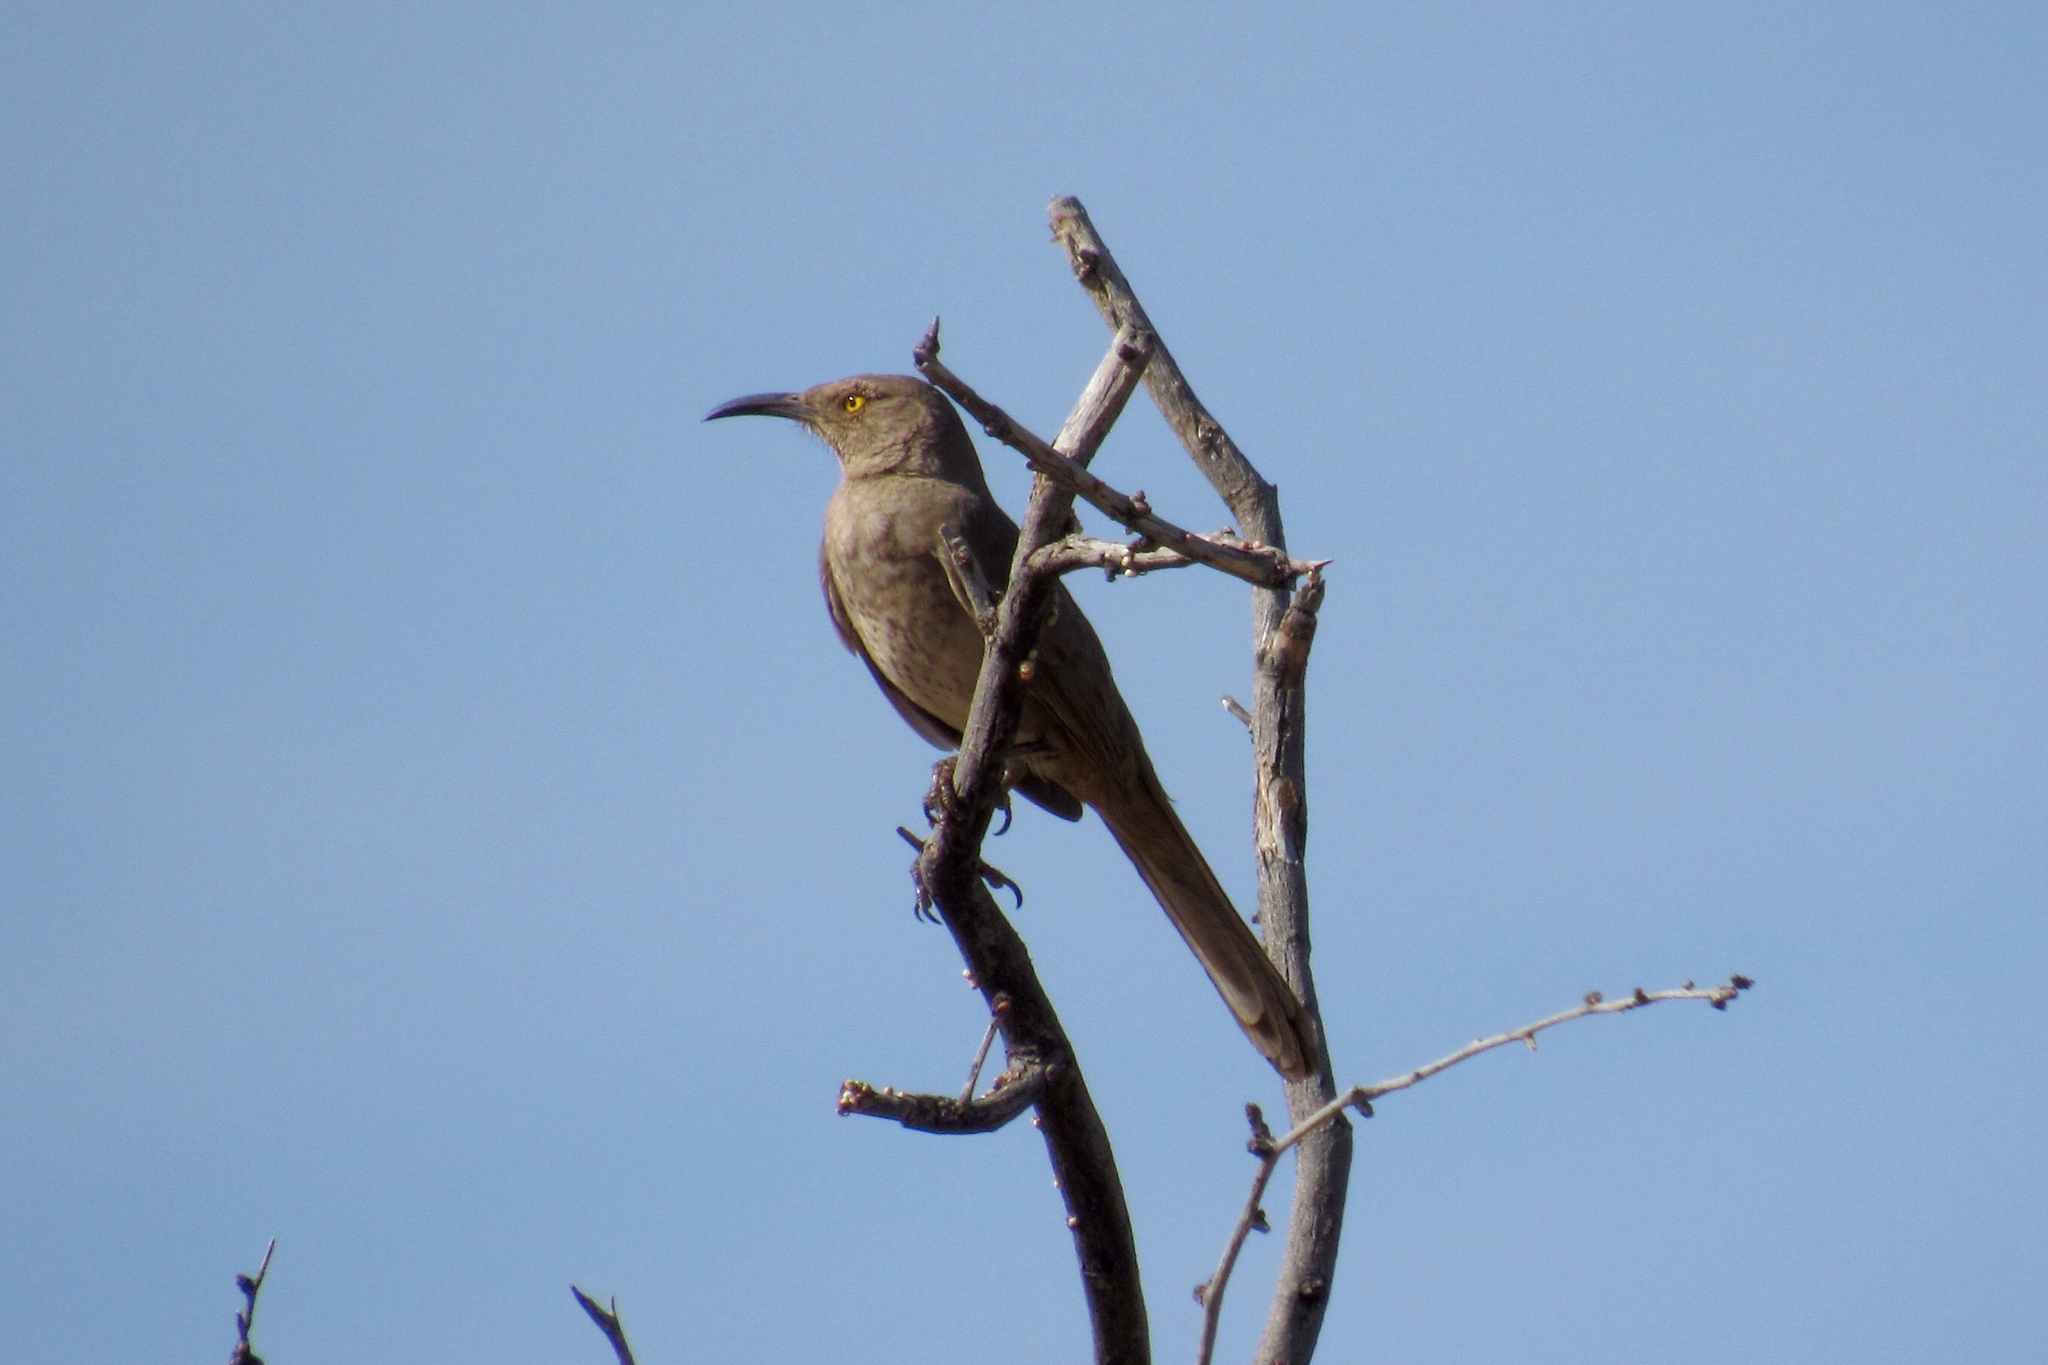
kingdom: Animalia
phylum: Chordata
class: Aves
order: Passeriformes
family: Mimidae
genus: Toxostoma
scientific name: Toxostoma curvirostre
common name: Curve-billed thrasher
